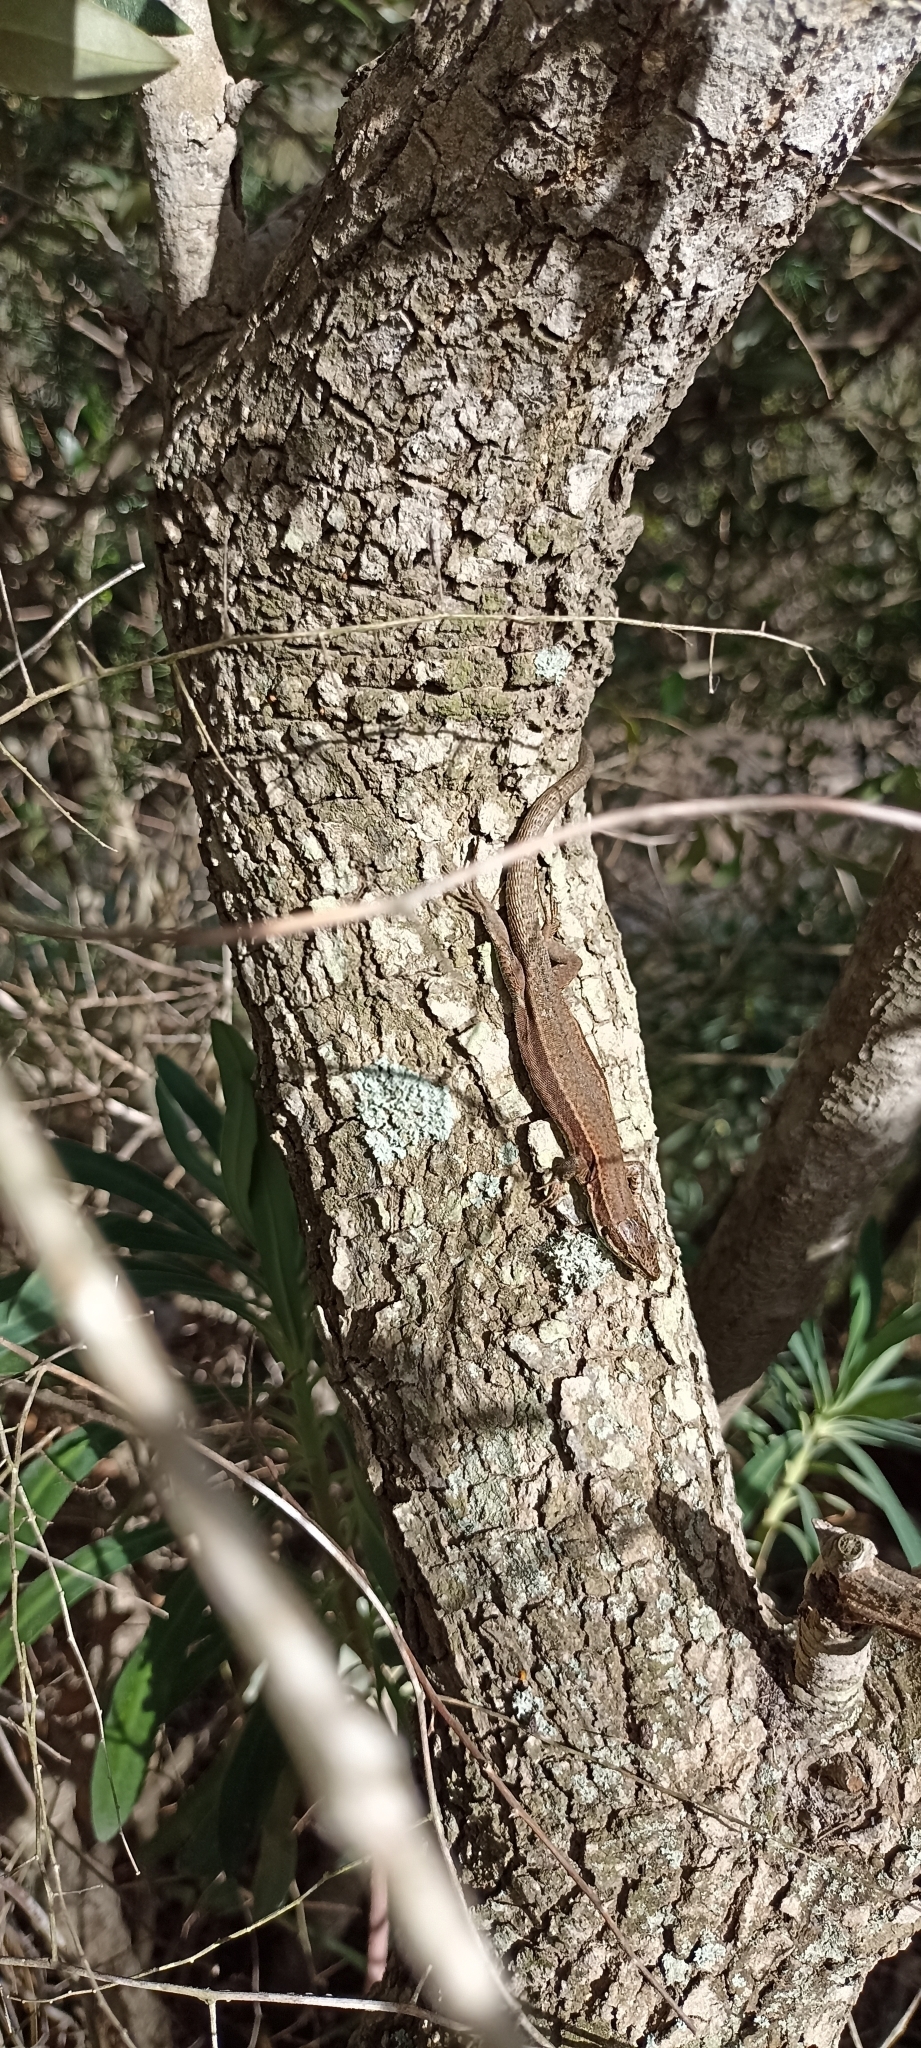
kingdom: Animalia
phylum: Chordata
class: Squamata
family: Lacertidae
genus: Podarcis
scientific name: Podarcis muralis
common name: Common wall lizard
